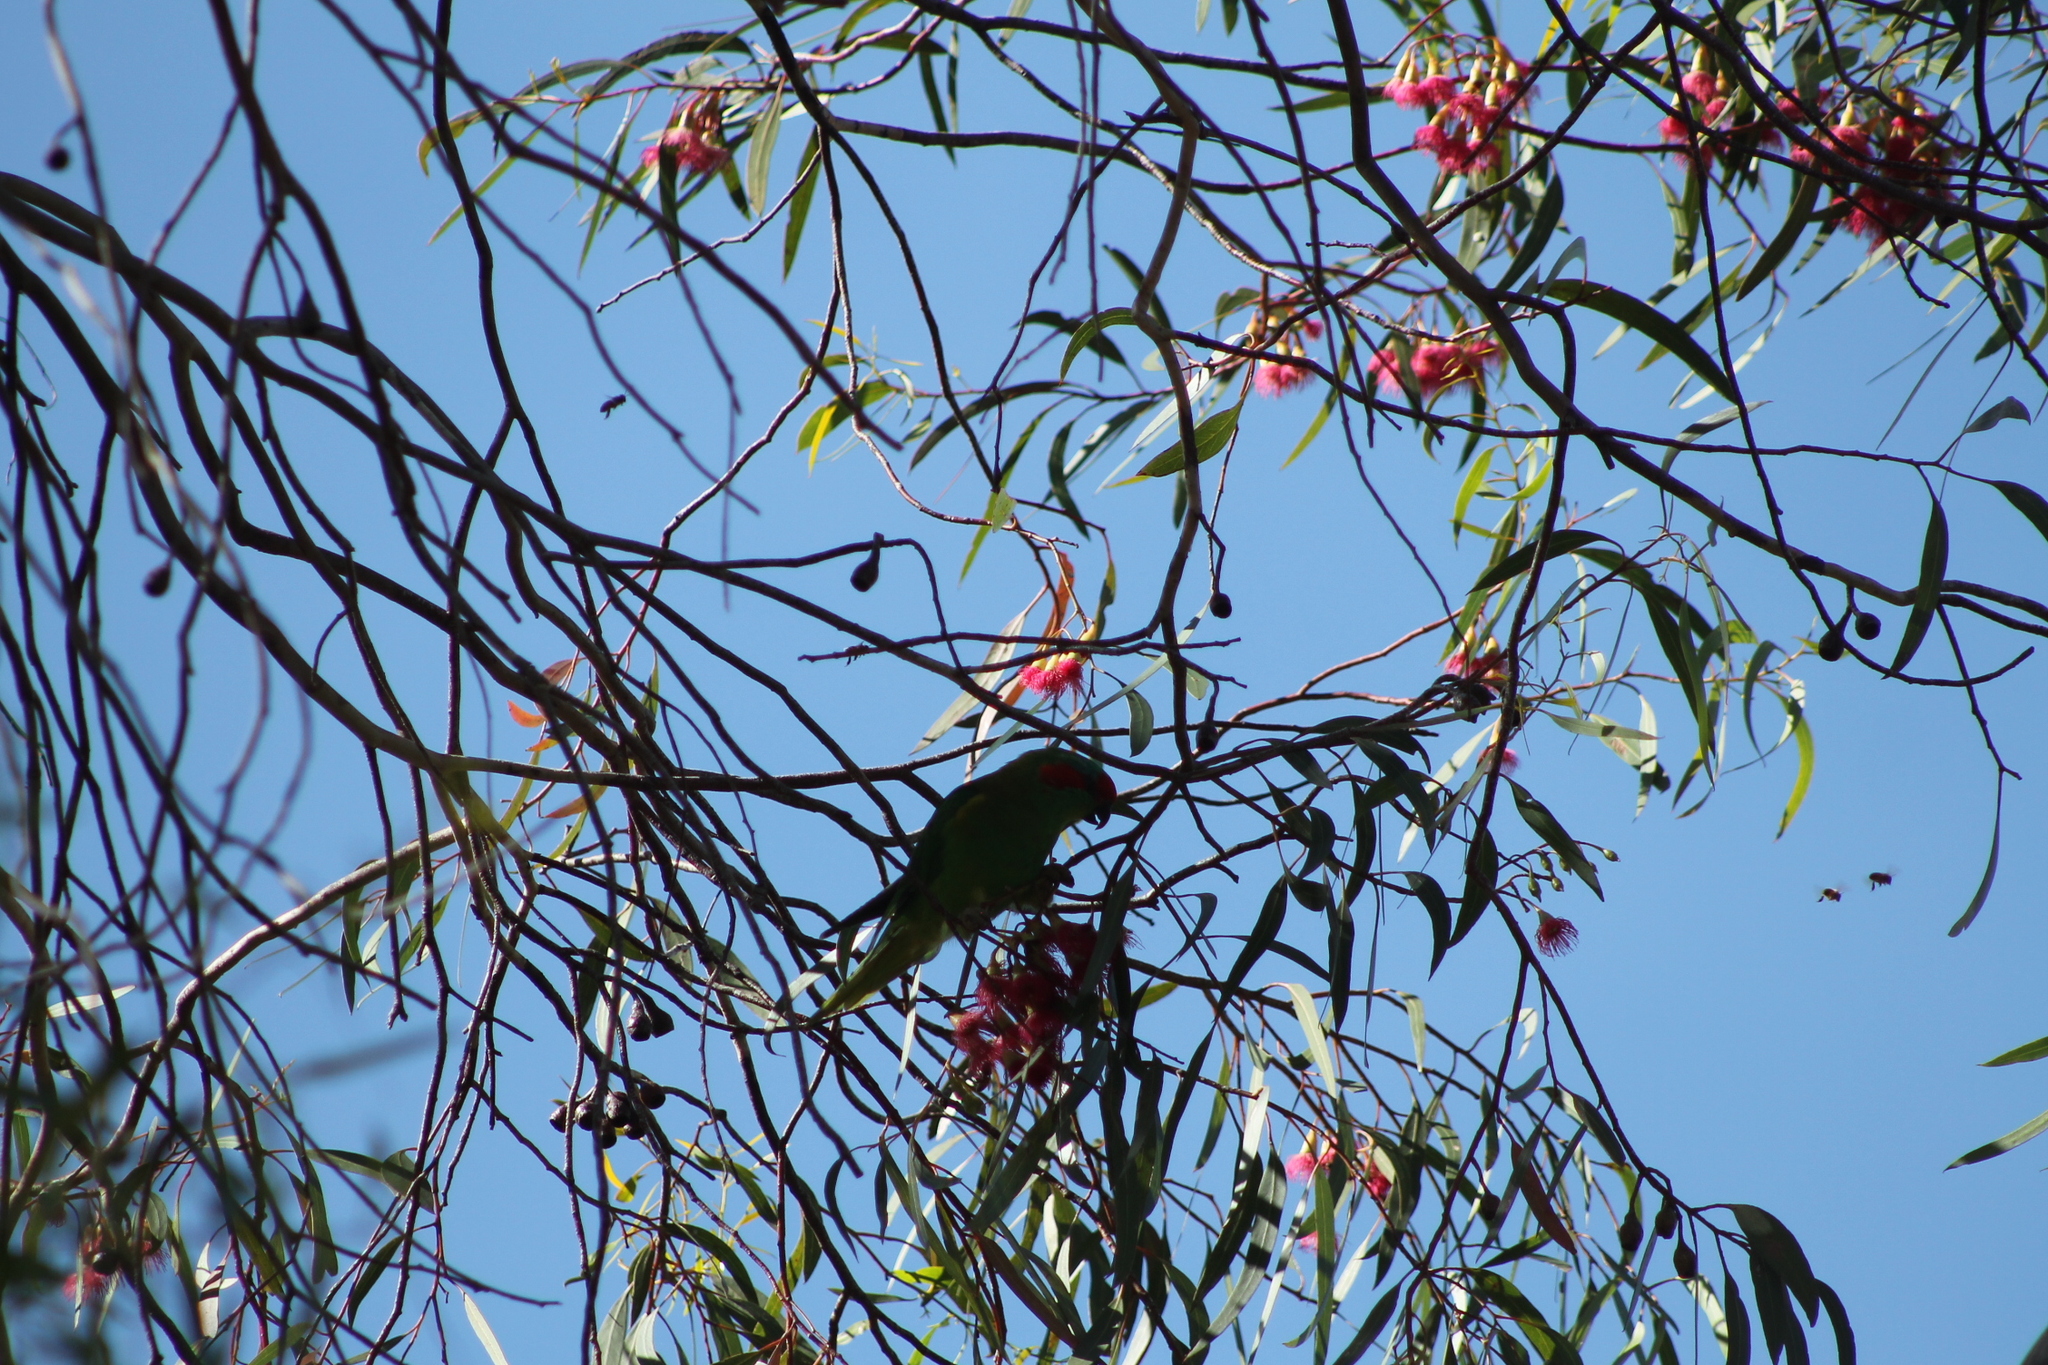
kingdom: Animalia
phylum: Chordata
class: Aves
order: Psittaciformes
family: Psittacidae
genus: Glossopsitta
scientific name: Glossopsitta concinna
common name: Musk lorikeet
